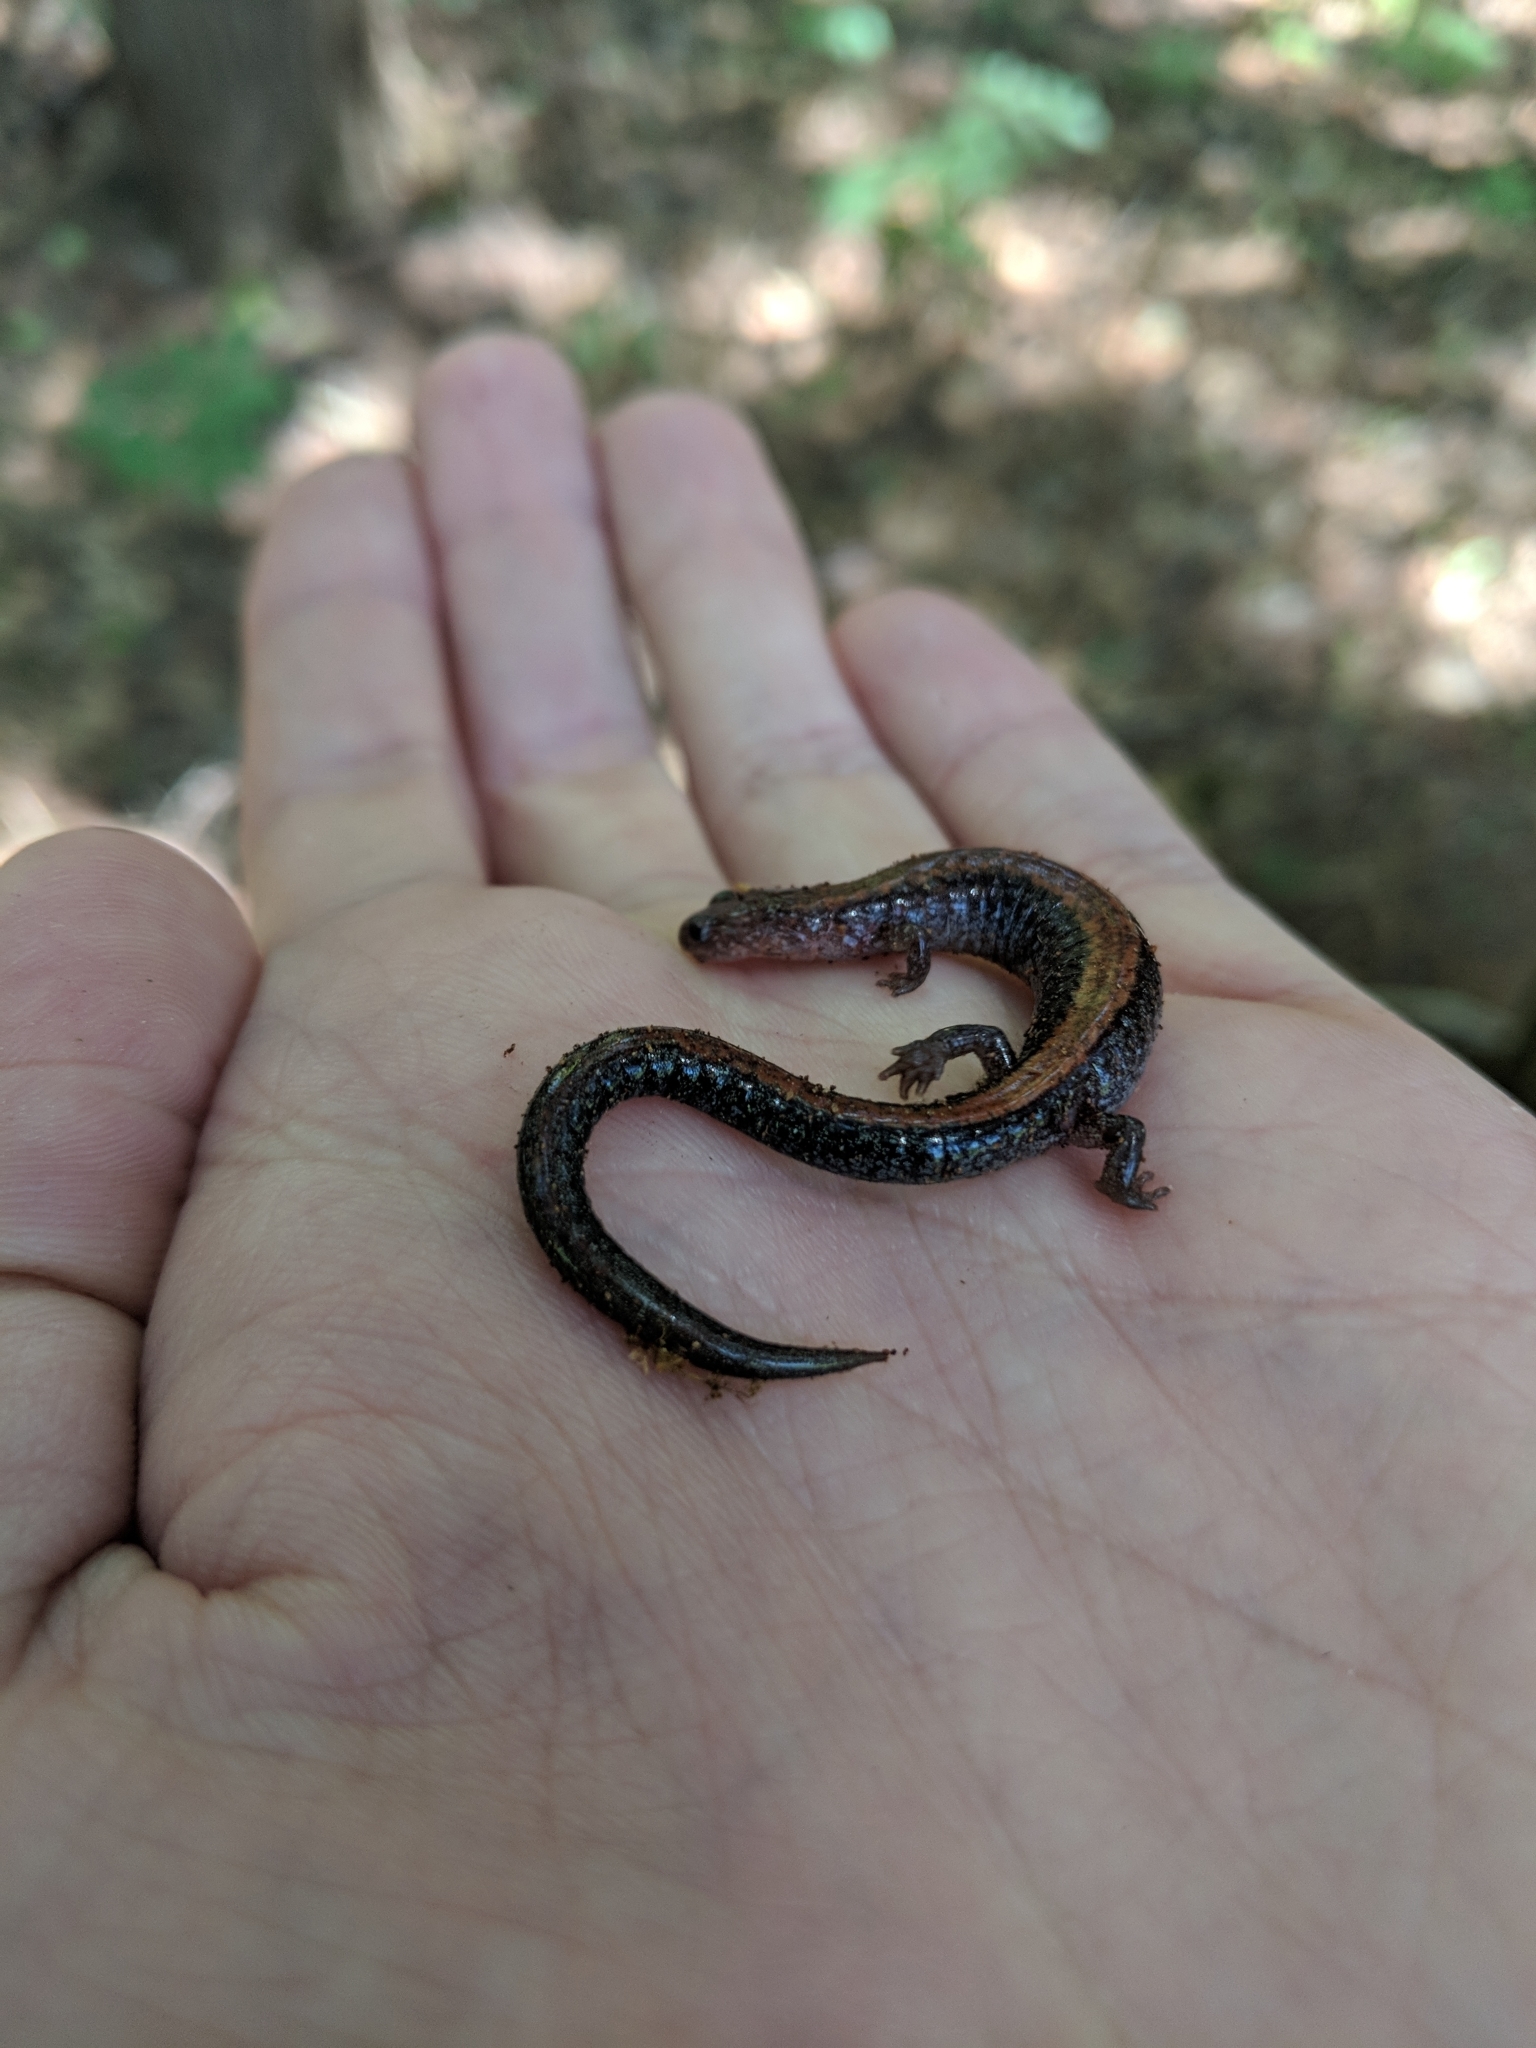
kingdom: Animalia
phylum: Chordata
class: Amphibia
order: Caudata
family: Plethodontidae
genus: Plethodon
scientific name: Plethodon cinereus
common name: Redback salamander
